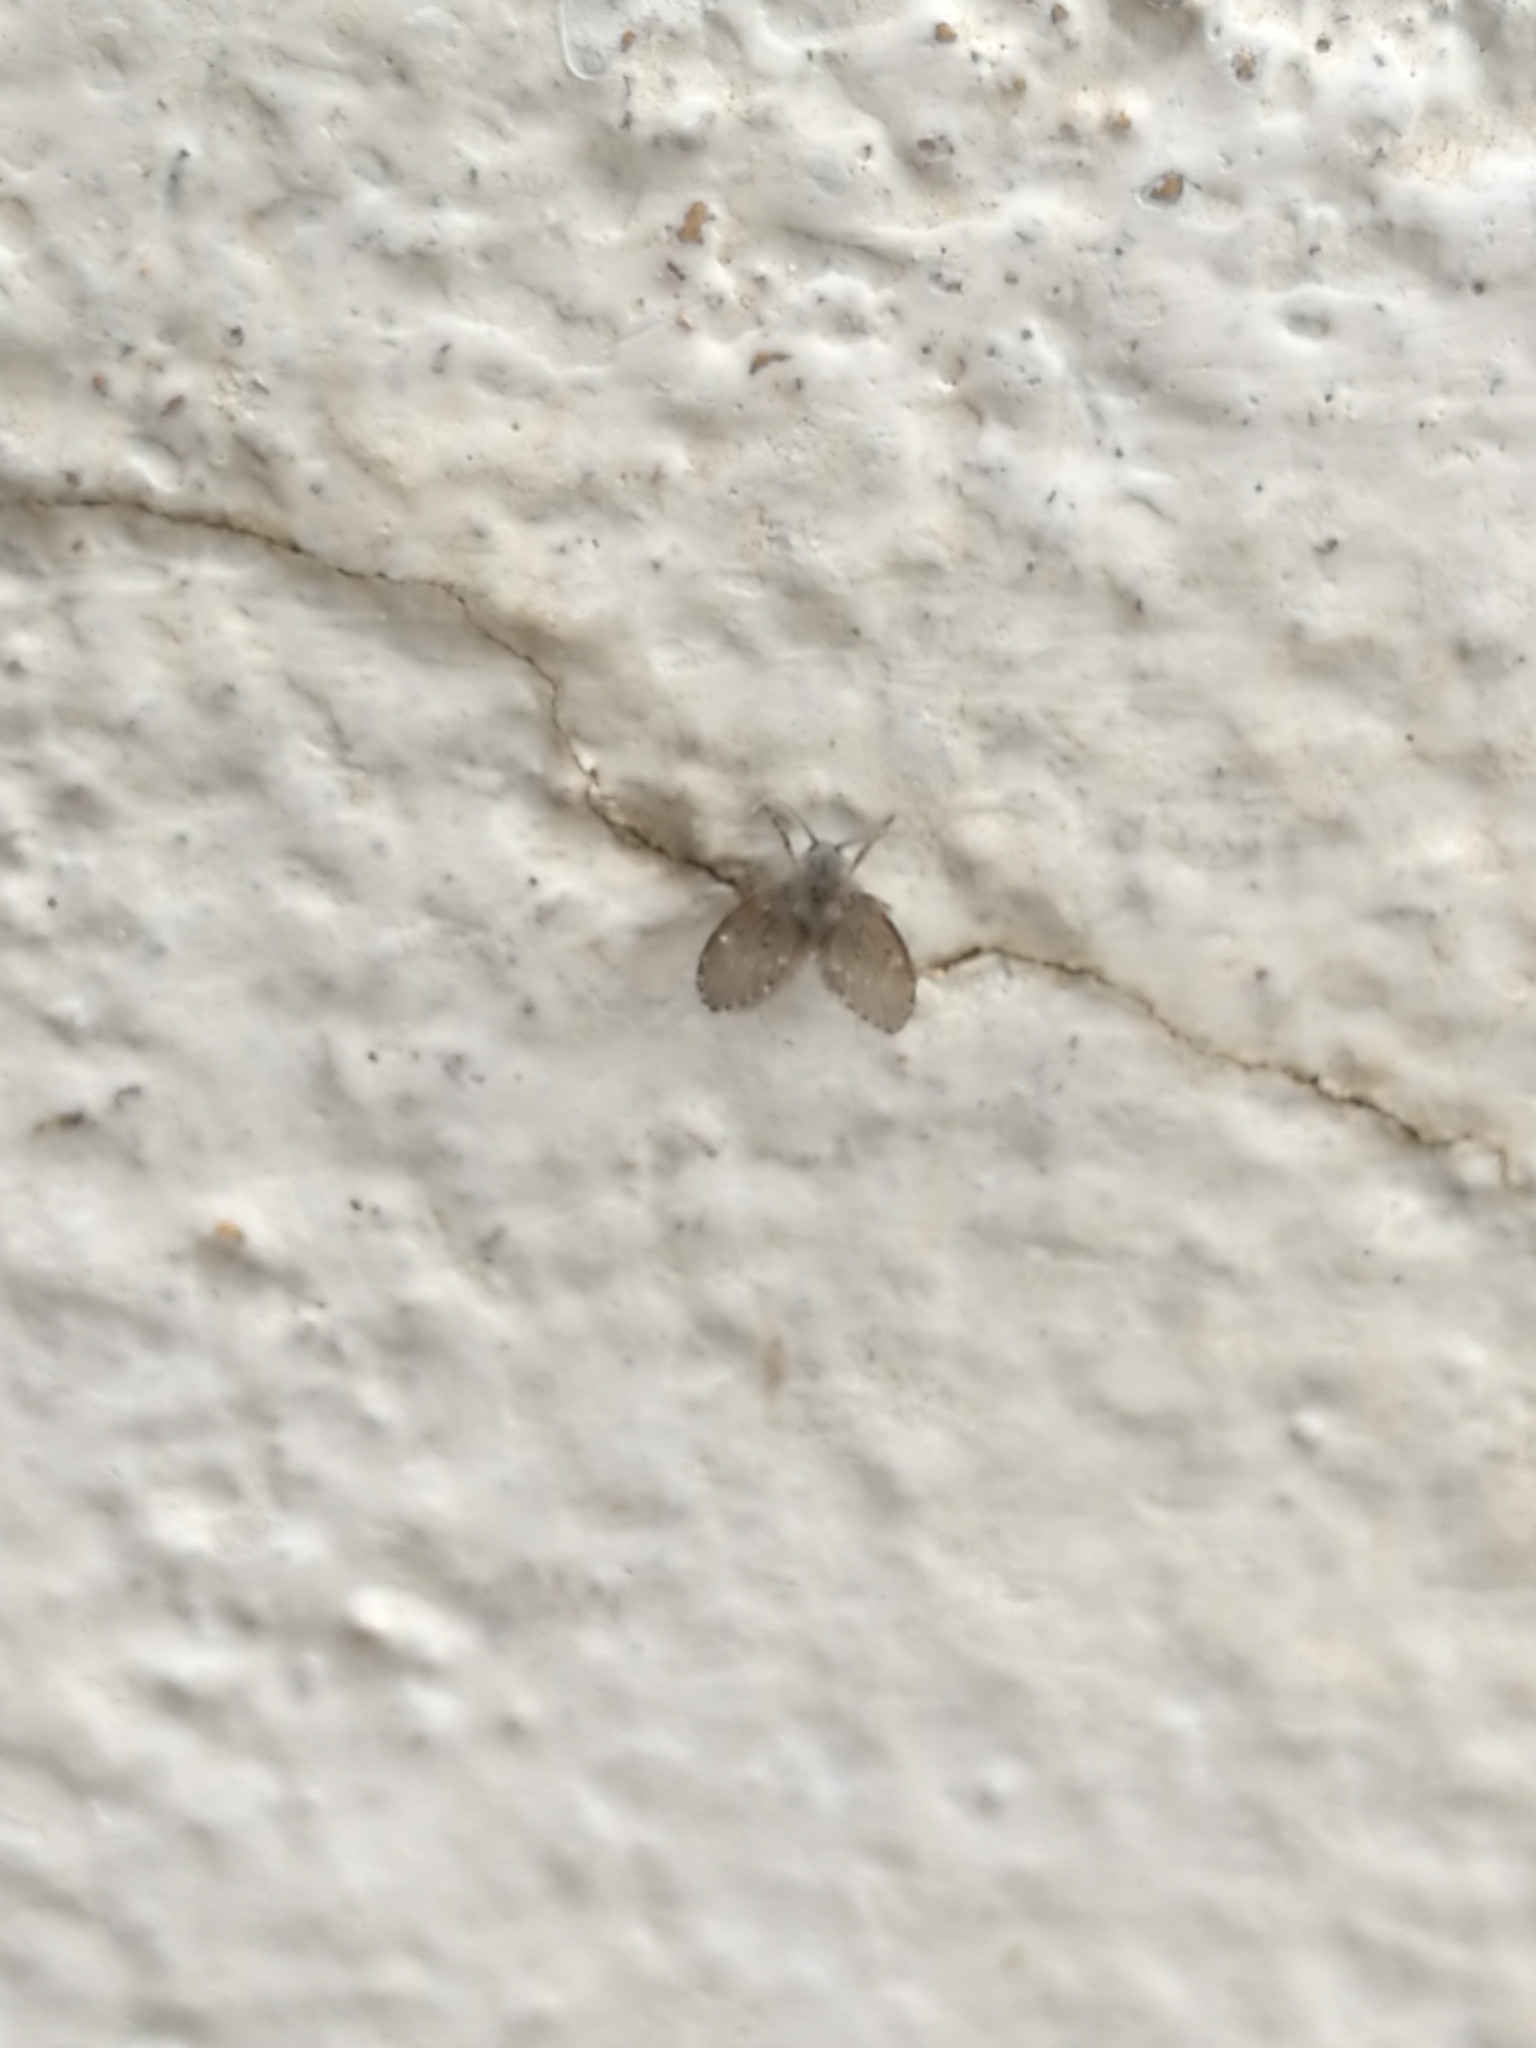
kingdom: Animalia
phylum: Arthropoda
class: Insecta
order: Diptera
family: Psychodidae
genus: Clogmia
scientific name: Clogmia albipunctatus
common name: White-spotted moth fly
